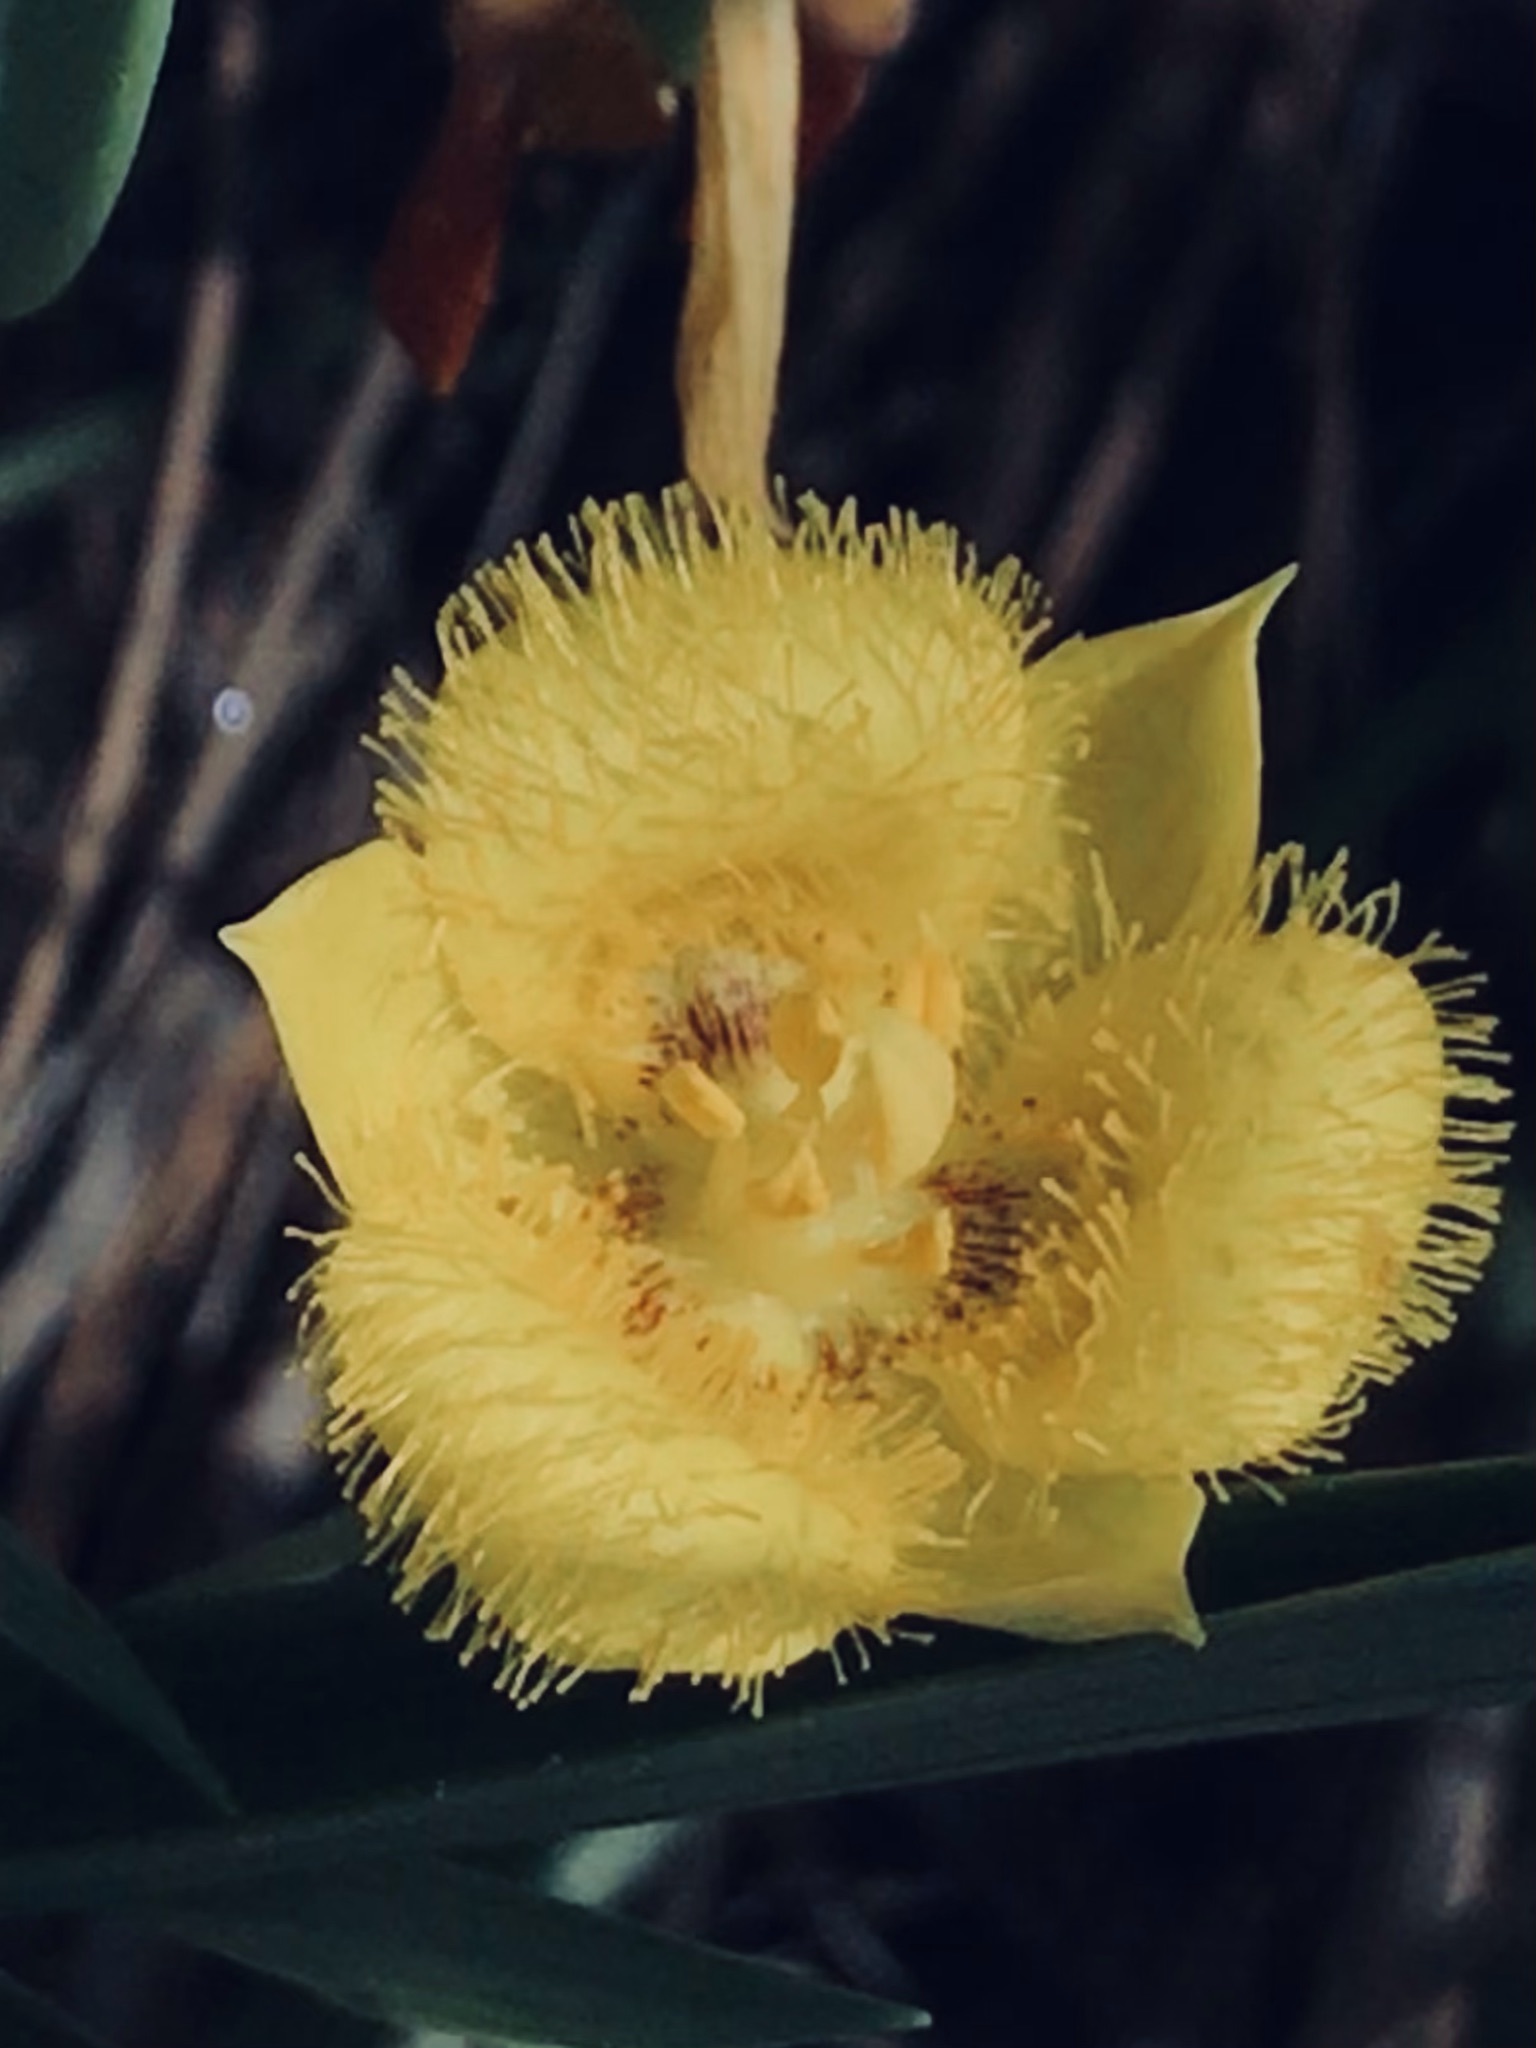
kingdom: Plantae
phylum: Tracheophyta
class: Liliopsida
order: Liliales
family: Liliaceae
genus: Calochortus
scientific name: Calochortus monophyllus
